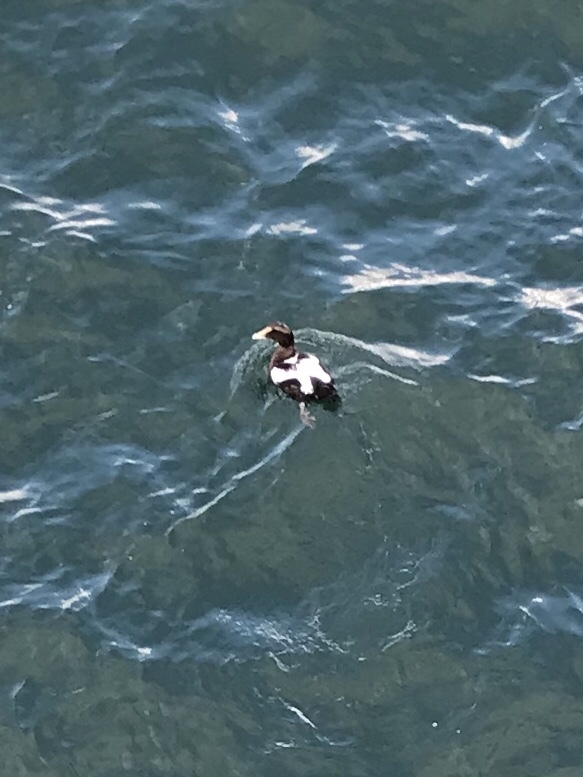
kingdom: Animalia
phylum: Chordata
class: Aves
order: Anseriformes
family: Anatidae
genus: Somateria
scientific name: Somateria mollissima
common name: Common eider
